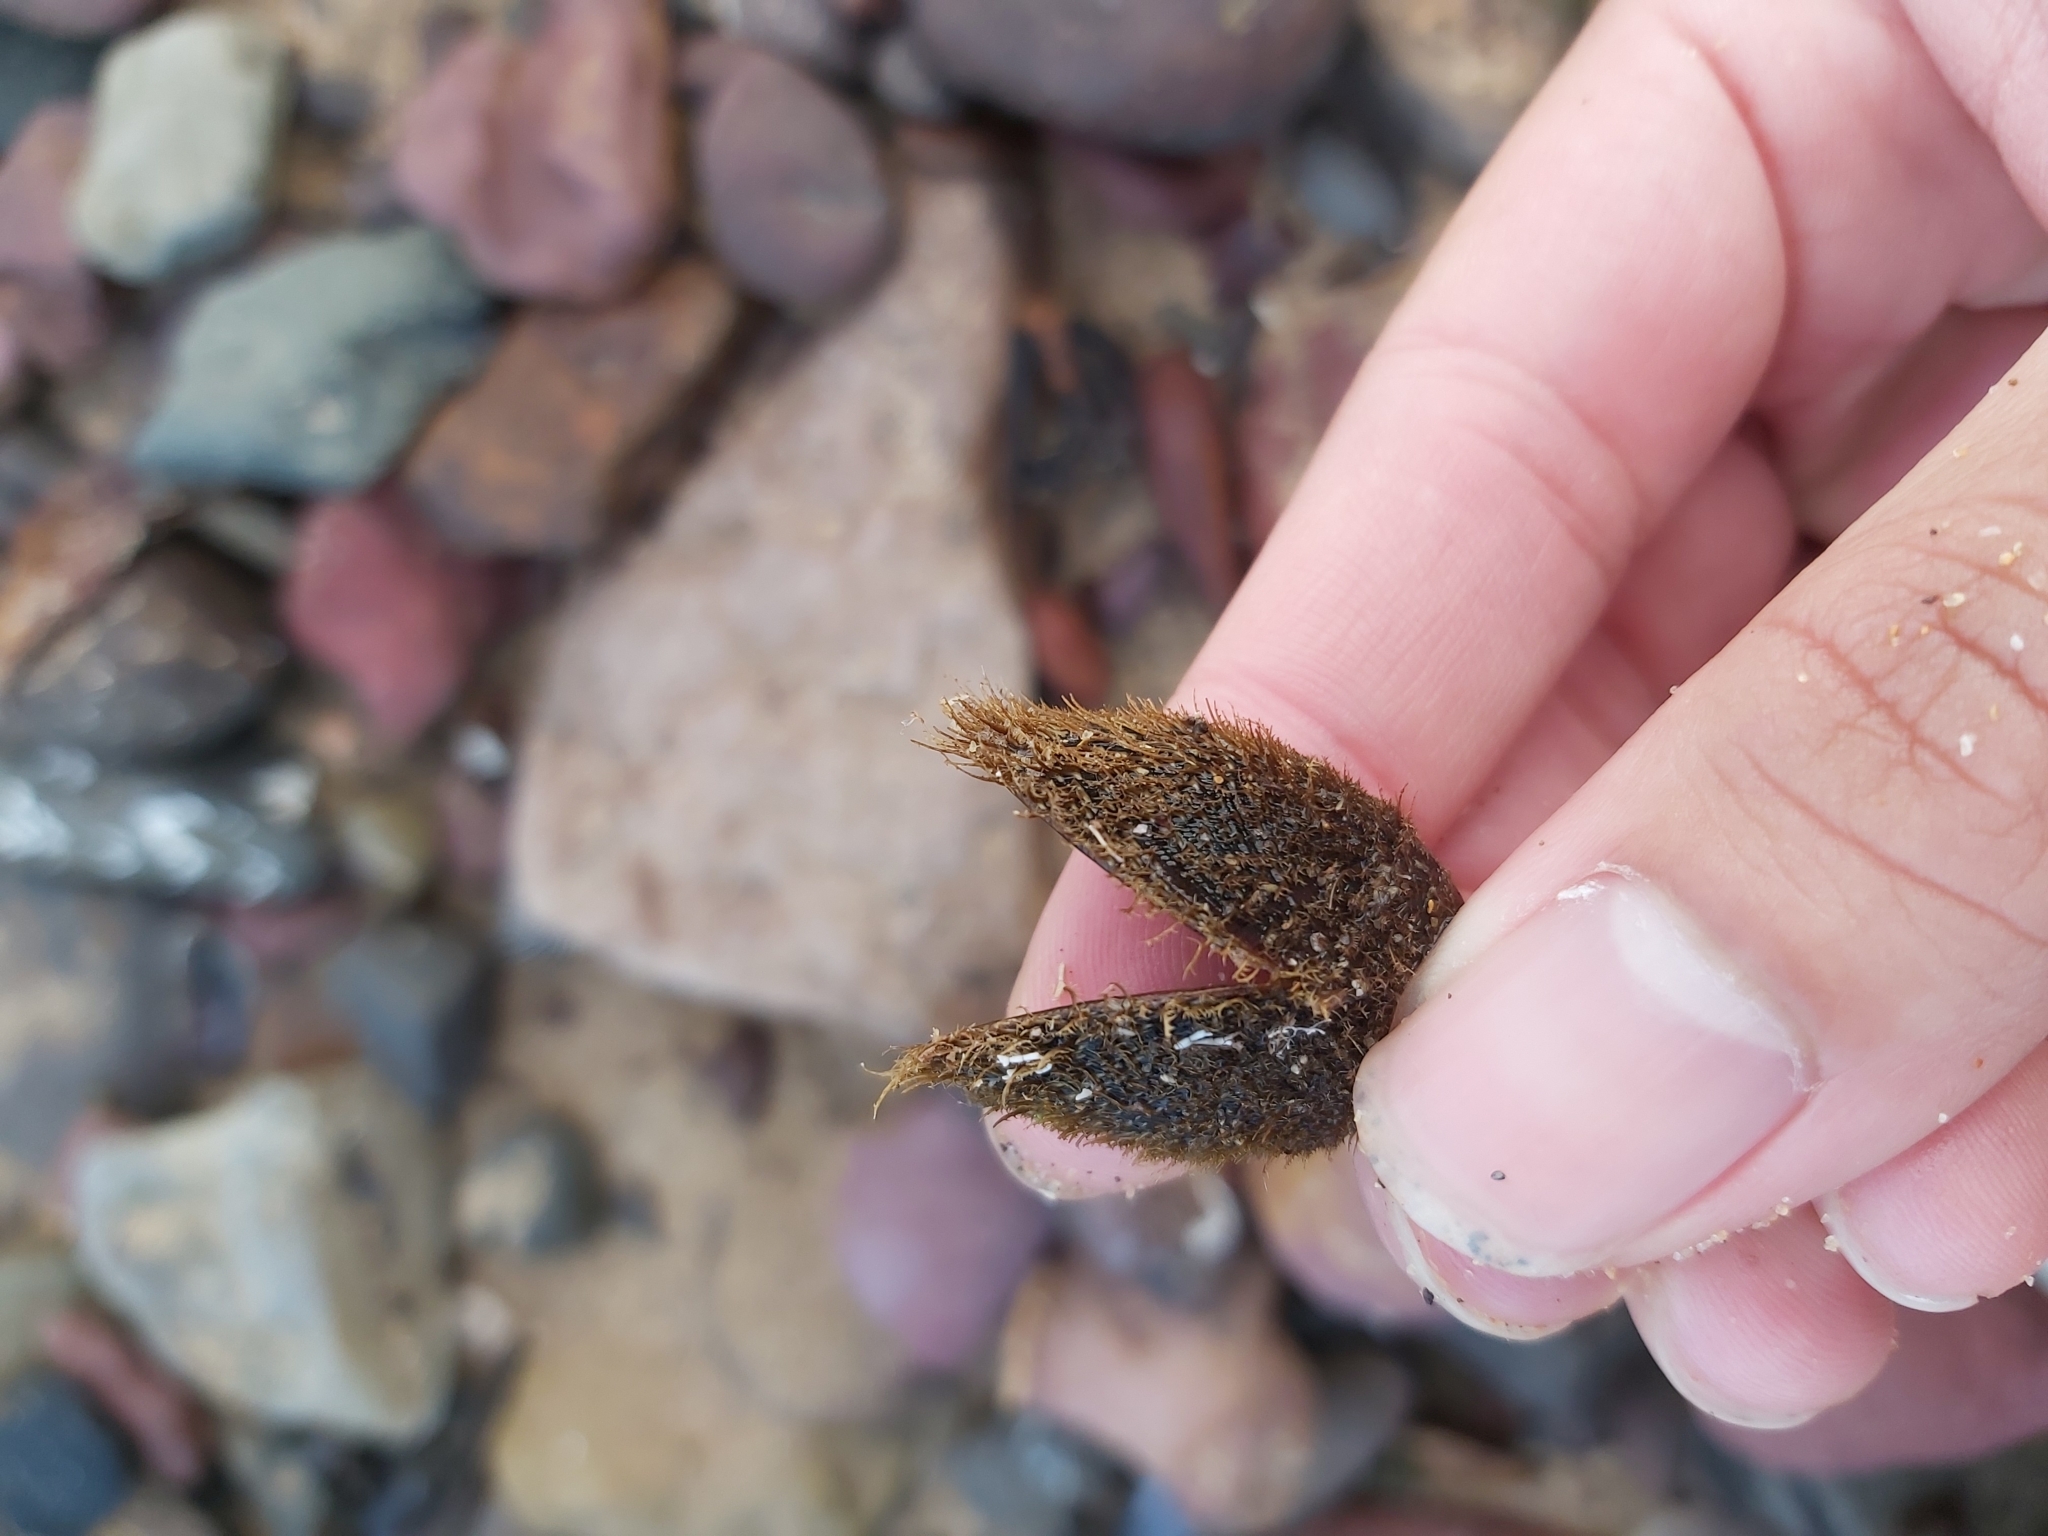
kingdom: Animalia
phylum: Mollusca
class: Bivalvia
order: Mytilida
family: Mytilidae
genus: Trichomya
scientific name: Trichomya hirsuta
